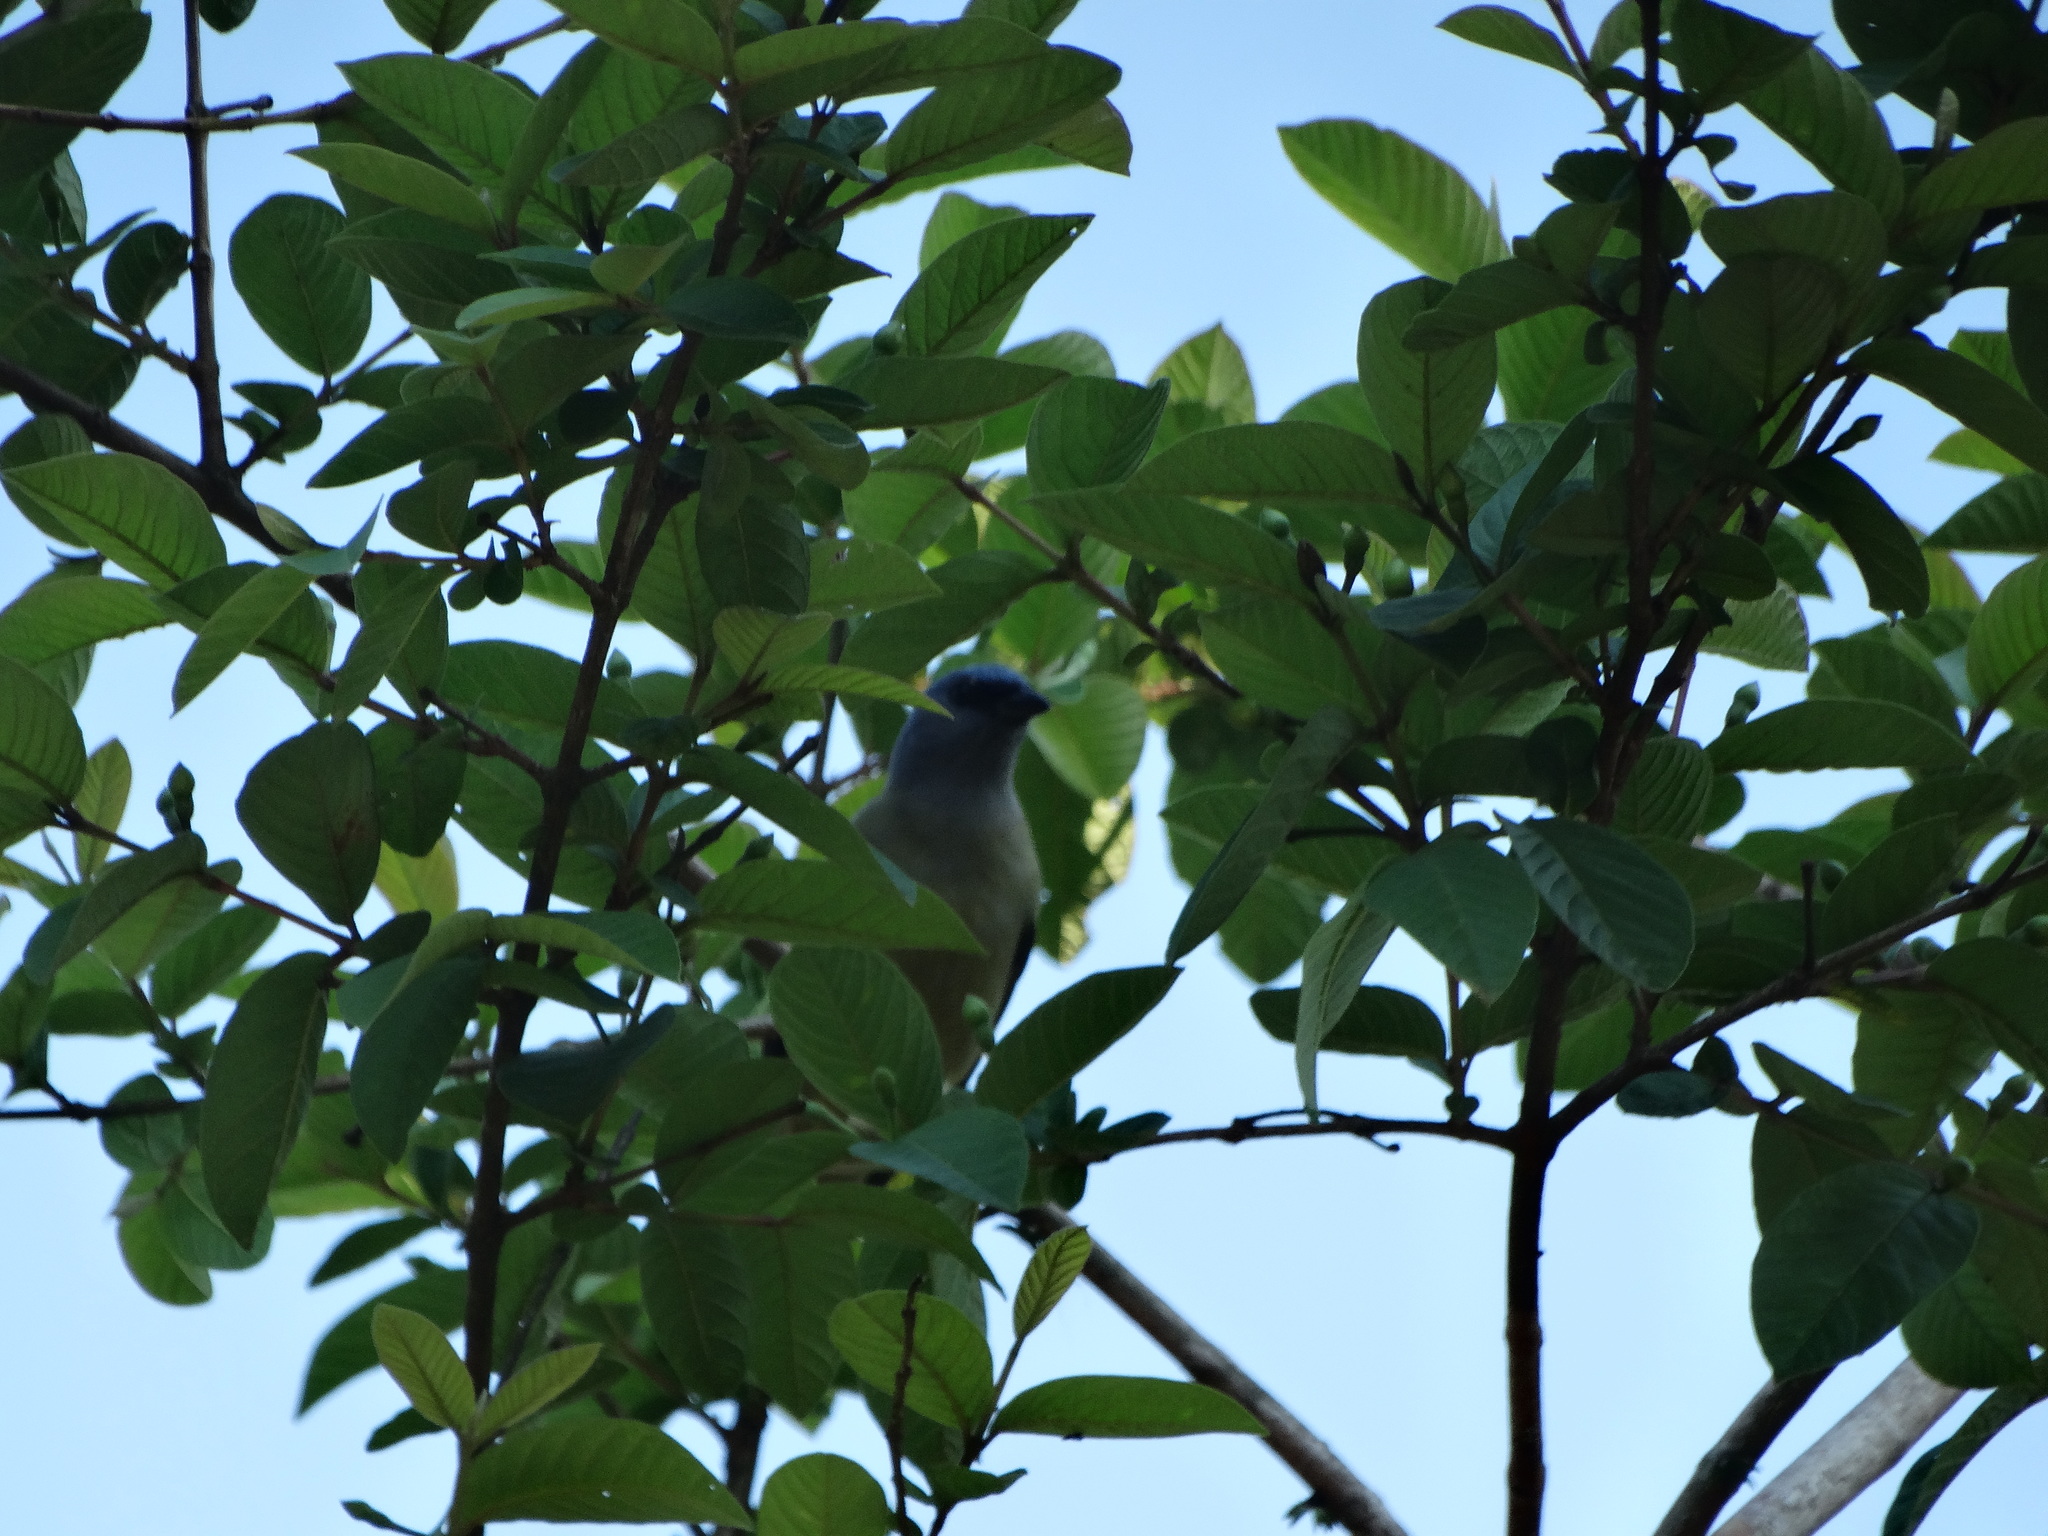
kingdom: Animalia
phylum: Chordata
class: Aves
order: Passeriformes
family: Thraupidae
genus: Thraupis
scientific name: Thraupis abbas
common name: Yellow-winged tanager
